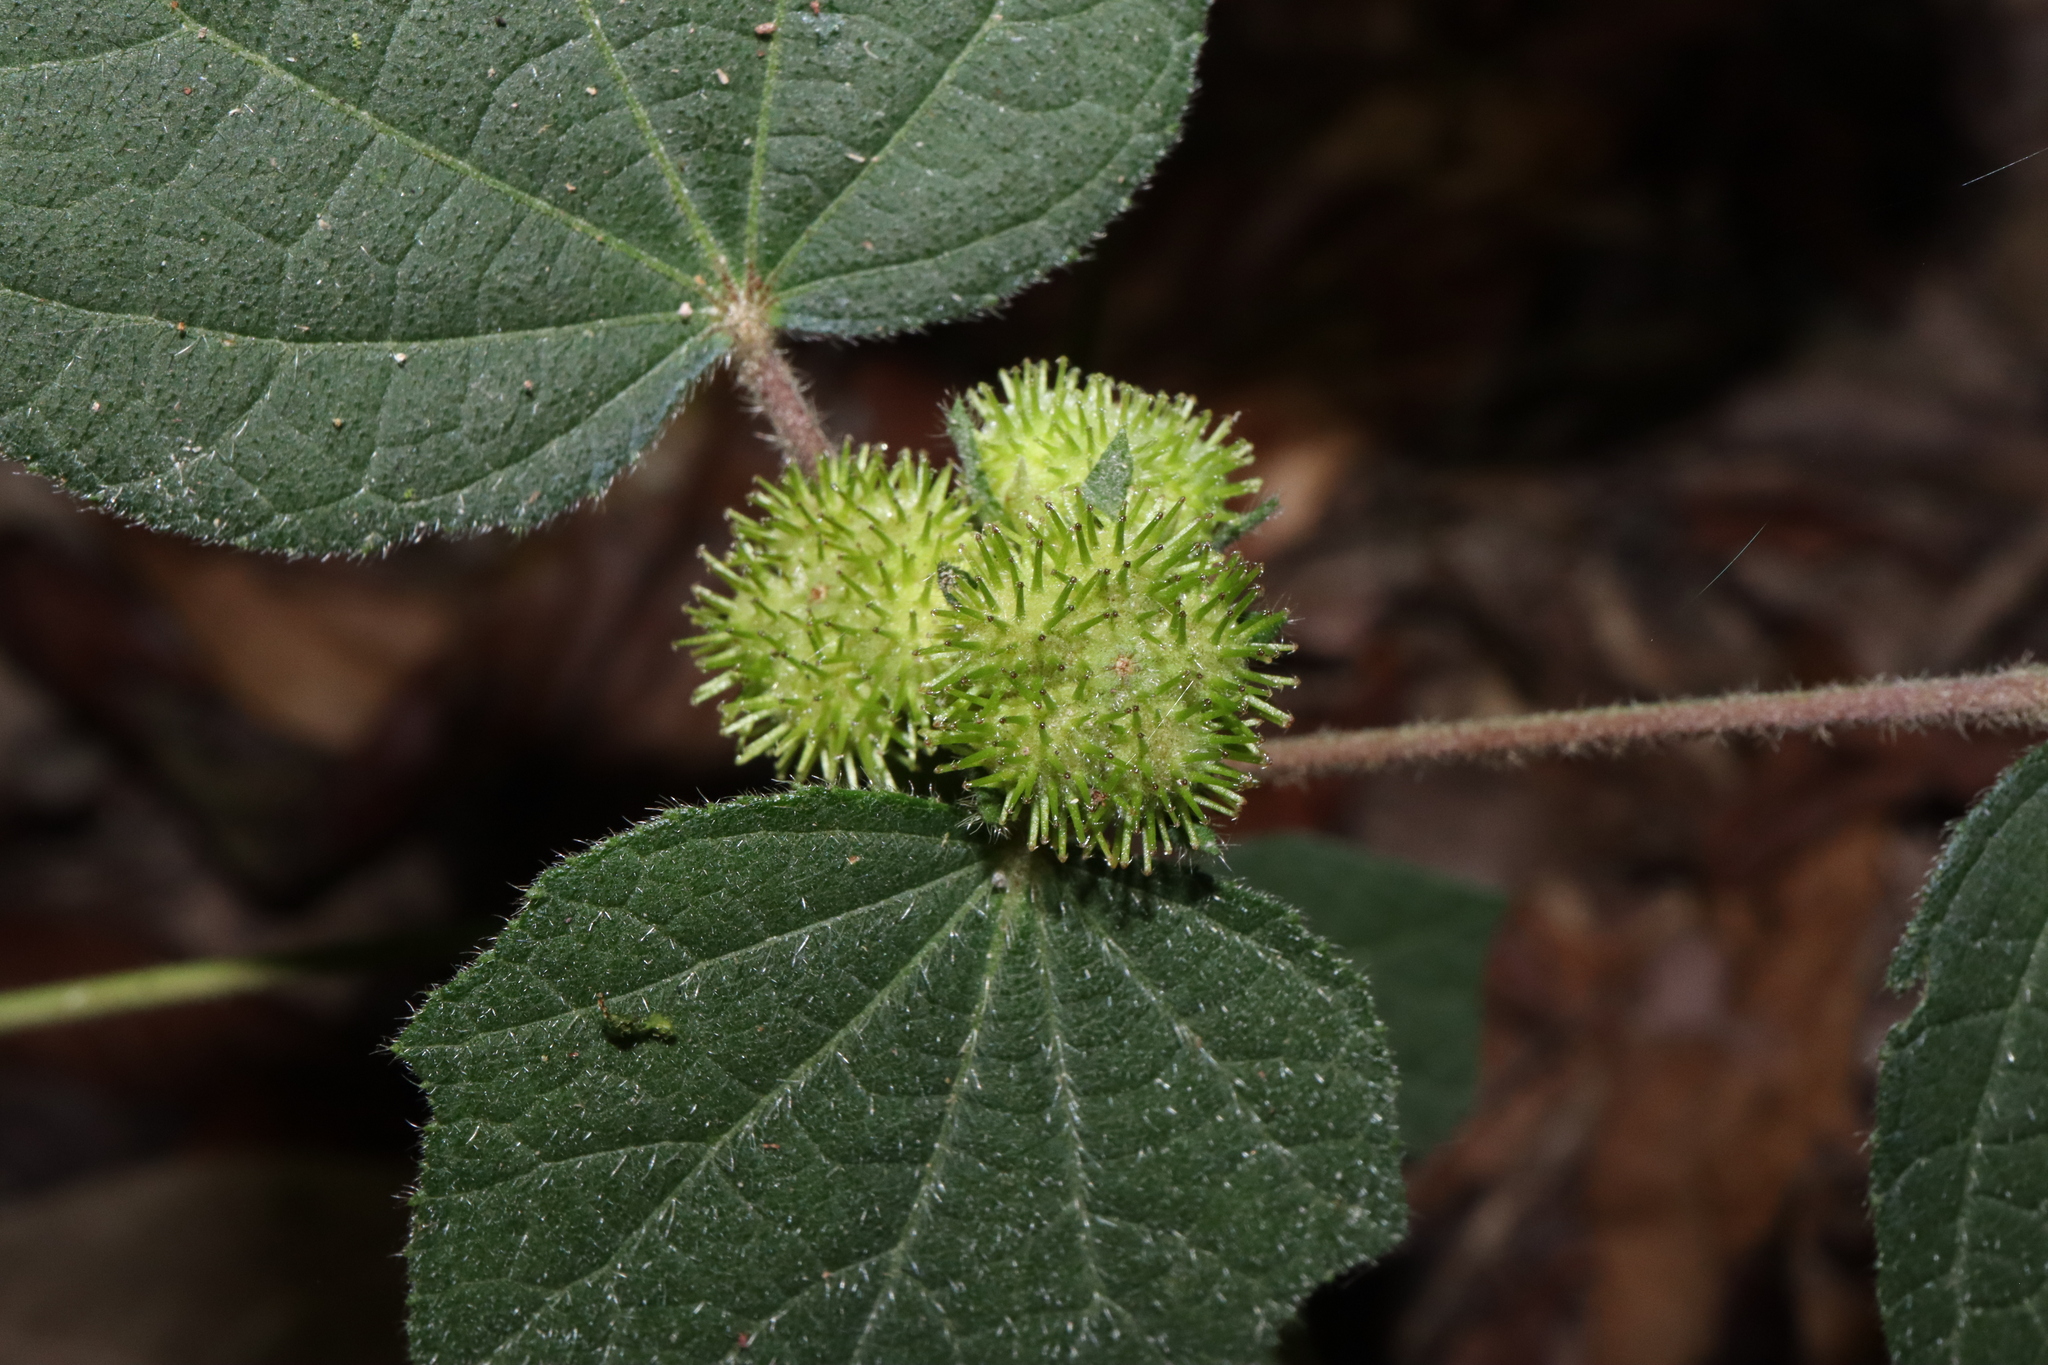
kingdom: Plantae
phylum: Tracheophyta
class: Magnoliopsida
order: Malvales
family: Malvaceae
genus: Urena
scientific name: Urena lobata
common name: Caesarweed
